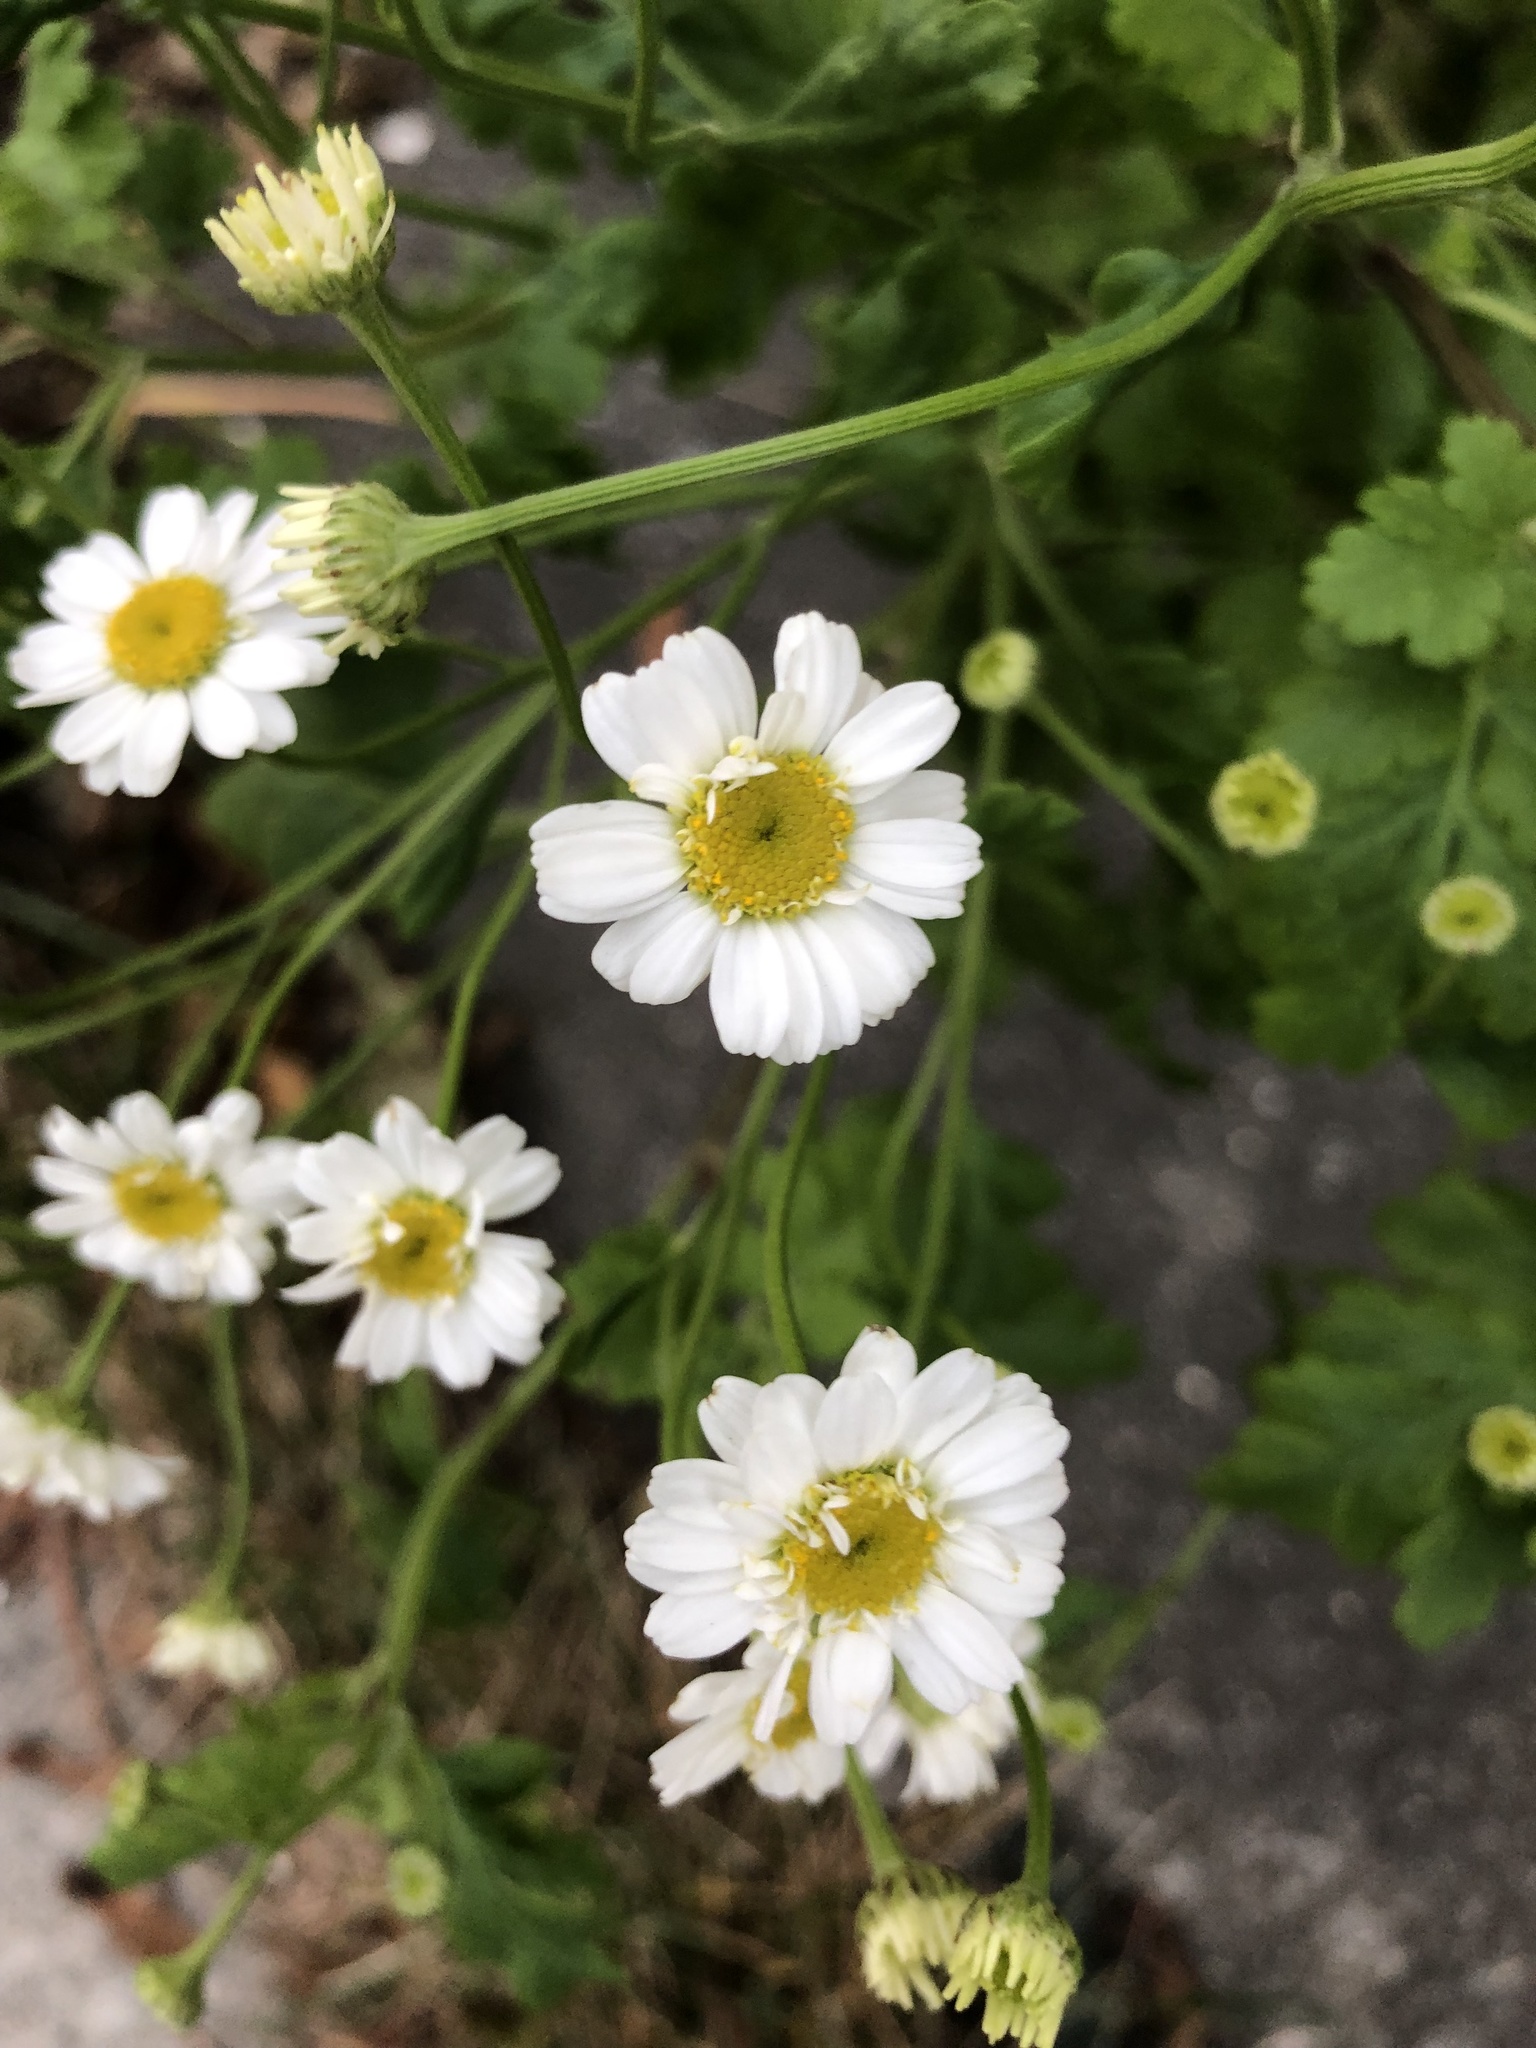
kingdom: Plantae
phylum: Tracheophyta
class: Magnoliopsida
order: Asterales
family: Asteraceae
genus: Tanacetum
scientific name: Tanacetum parthenium
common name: Feverfew
